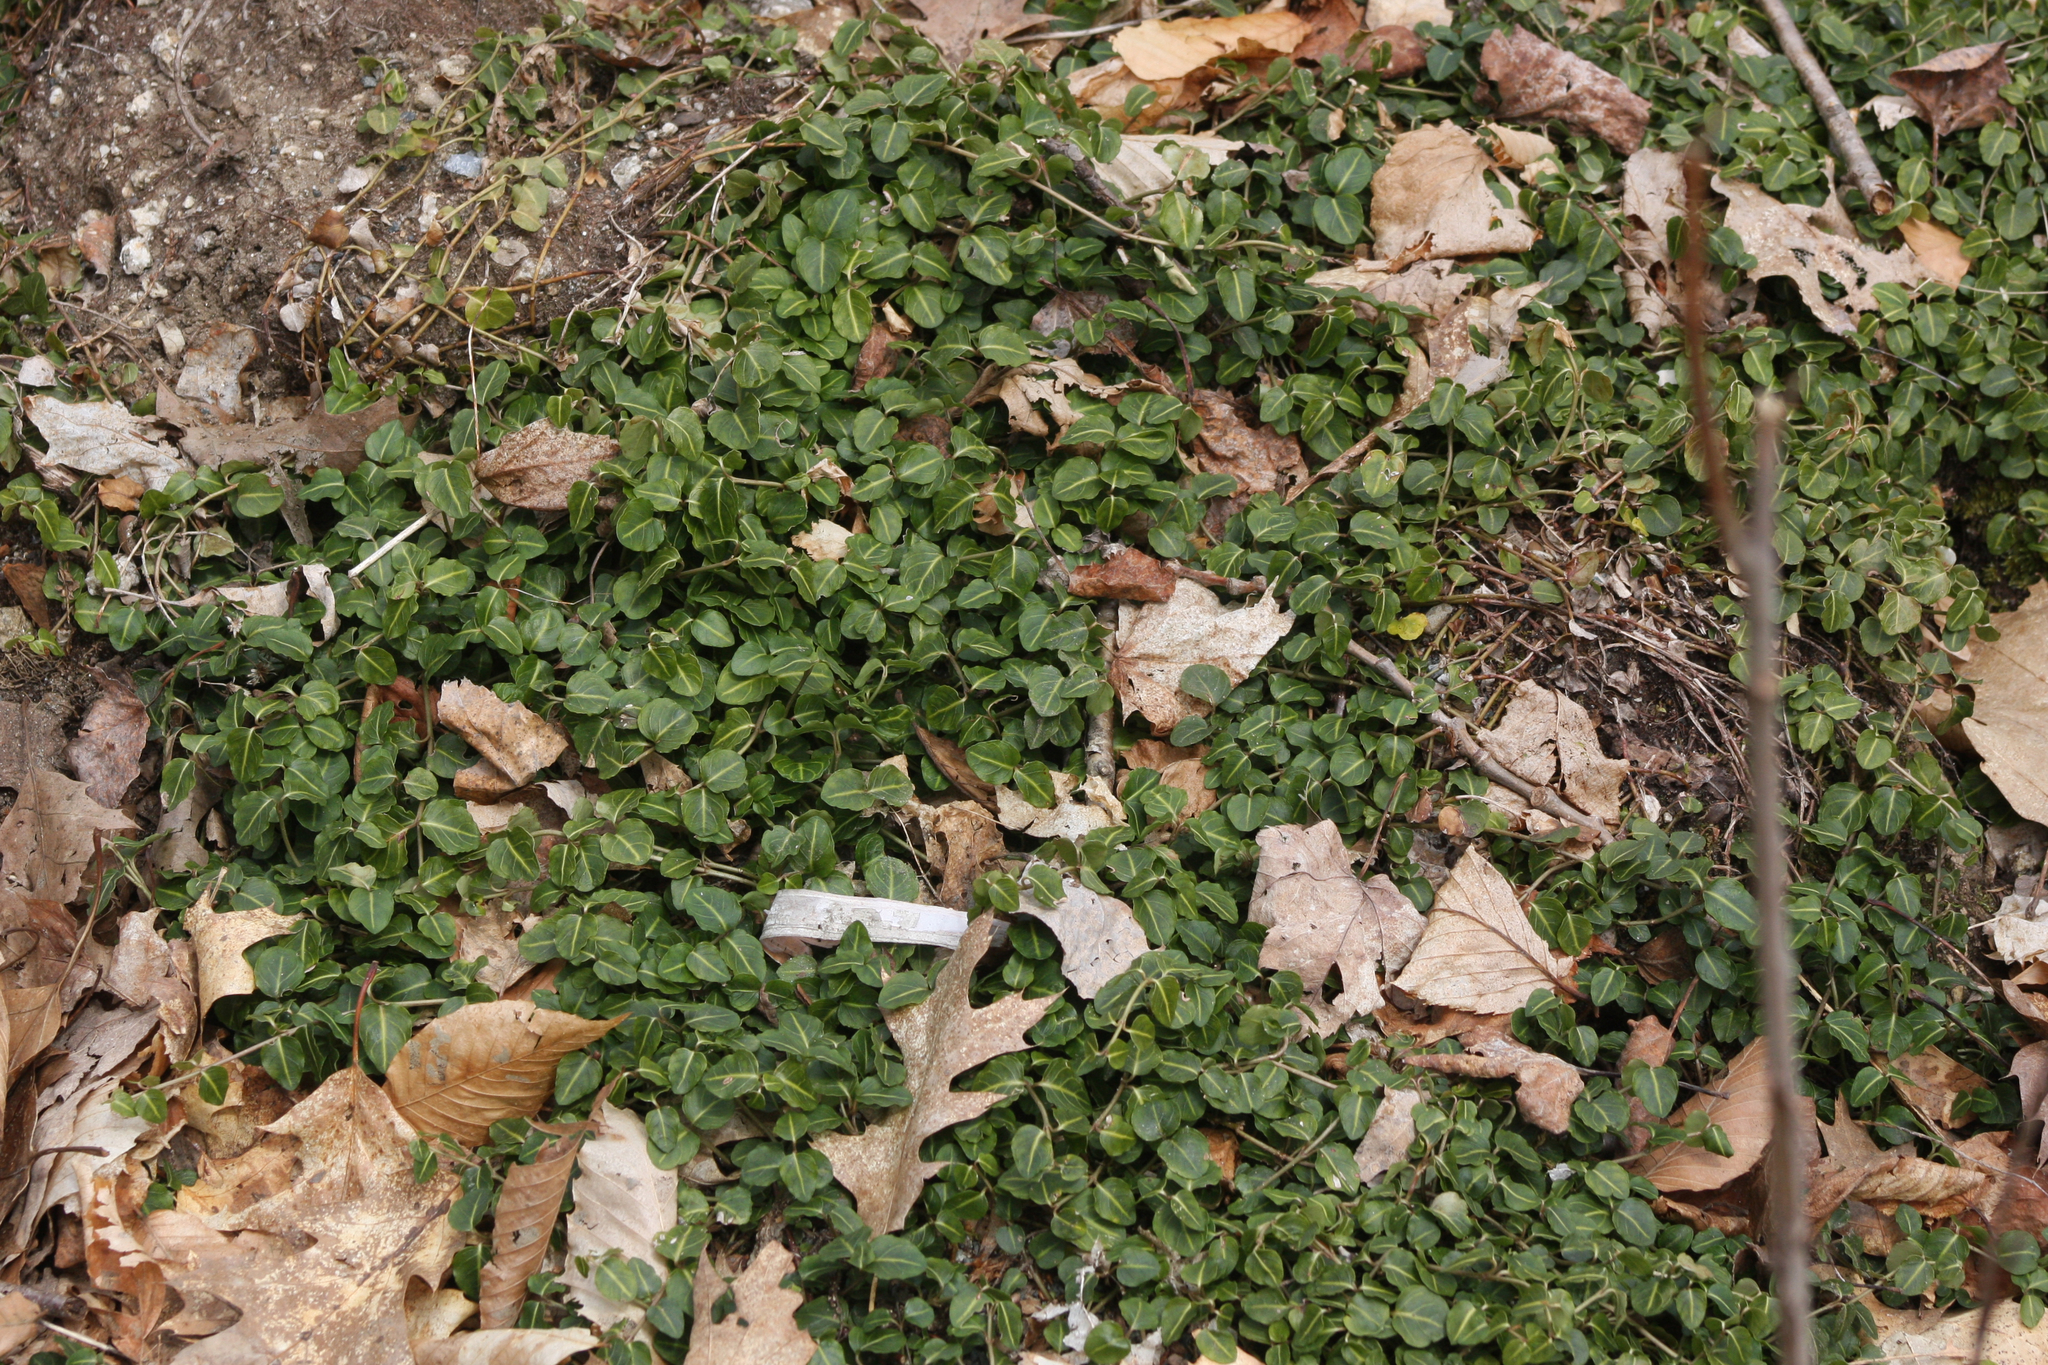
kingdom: Plantae
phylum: Tracheophyta
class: Magnoliopsida
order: Gentianales
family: Rubiaceae
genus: Mitchella
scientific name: Mitchella repens
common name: Partridge-berry
